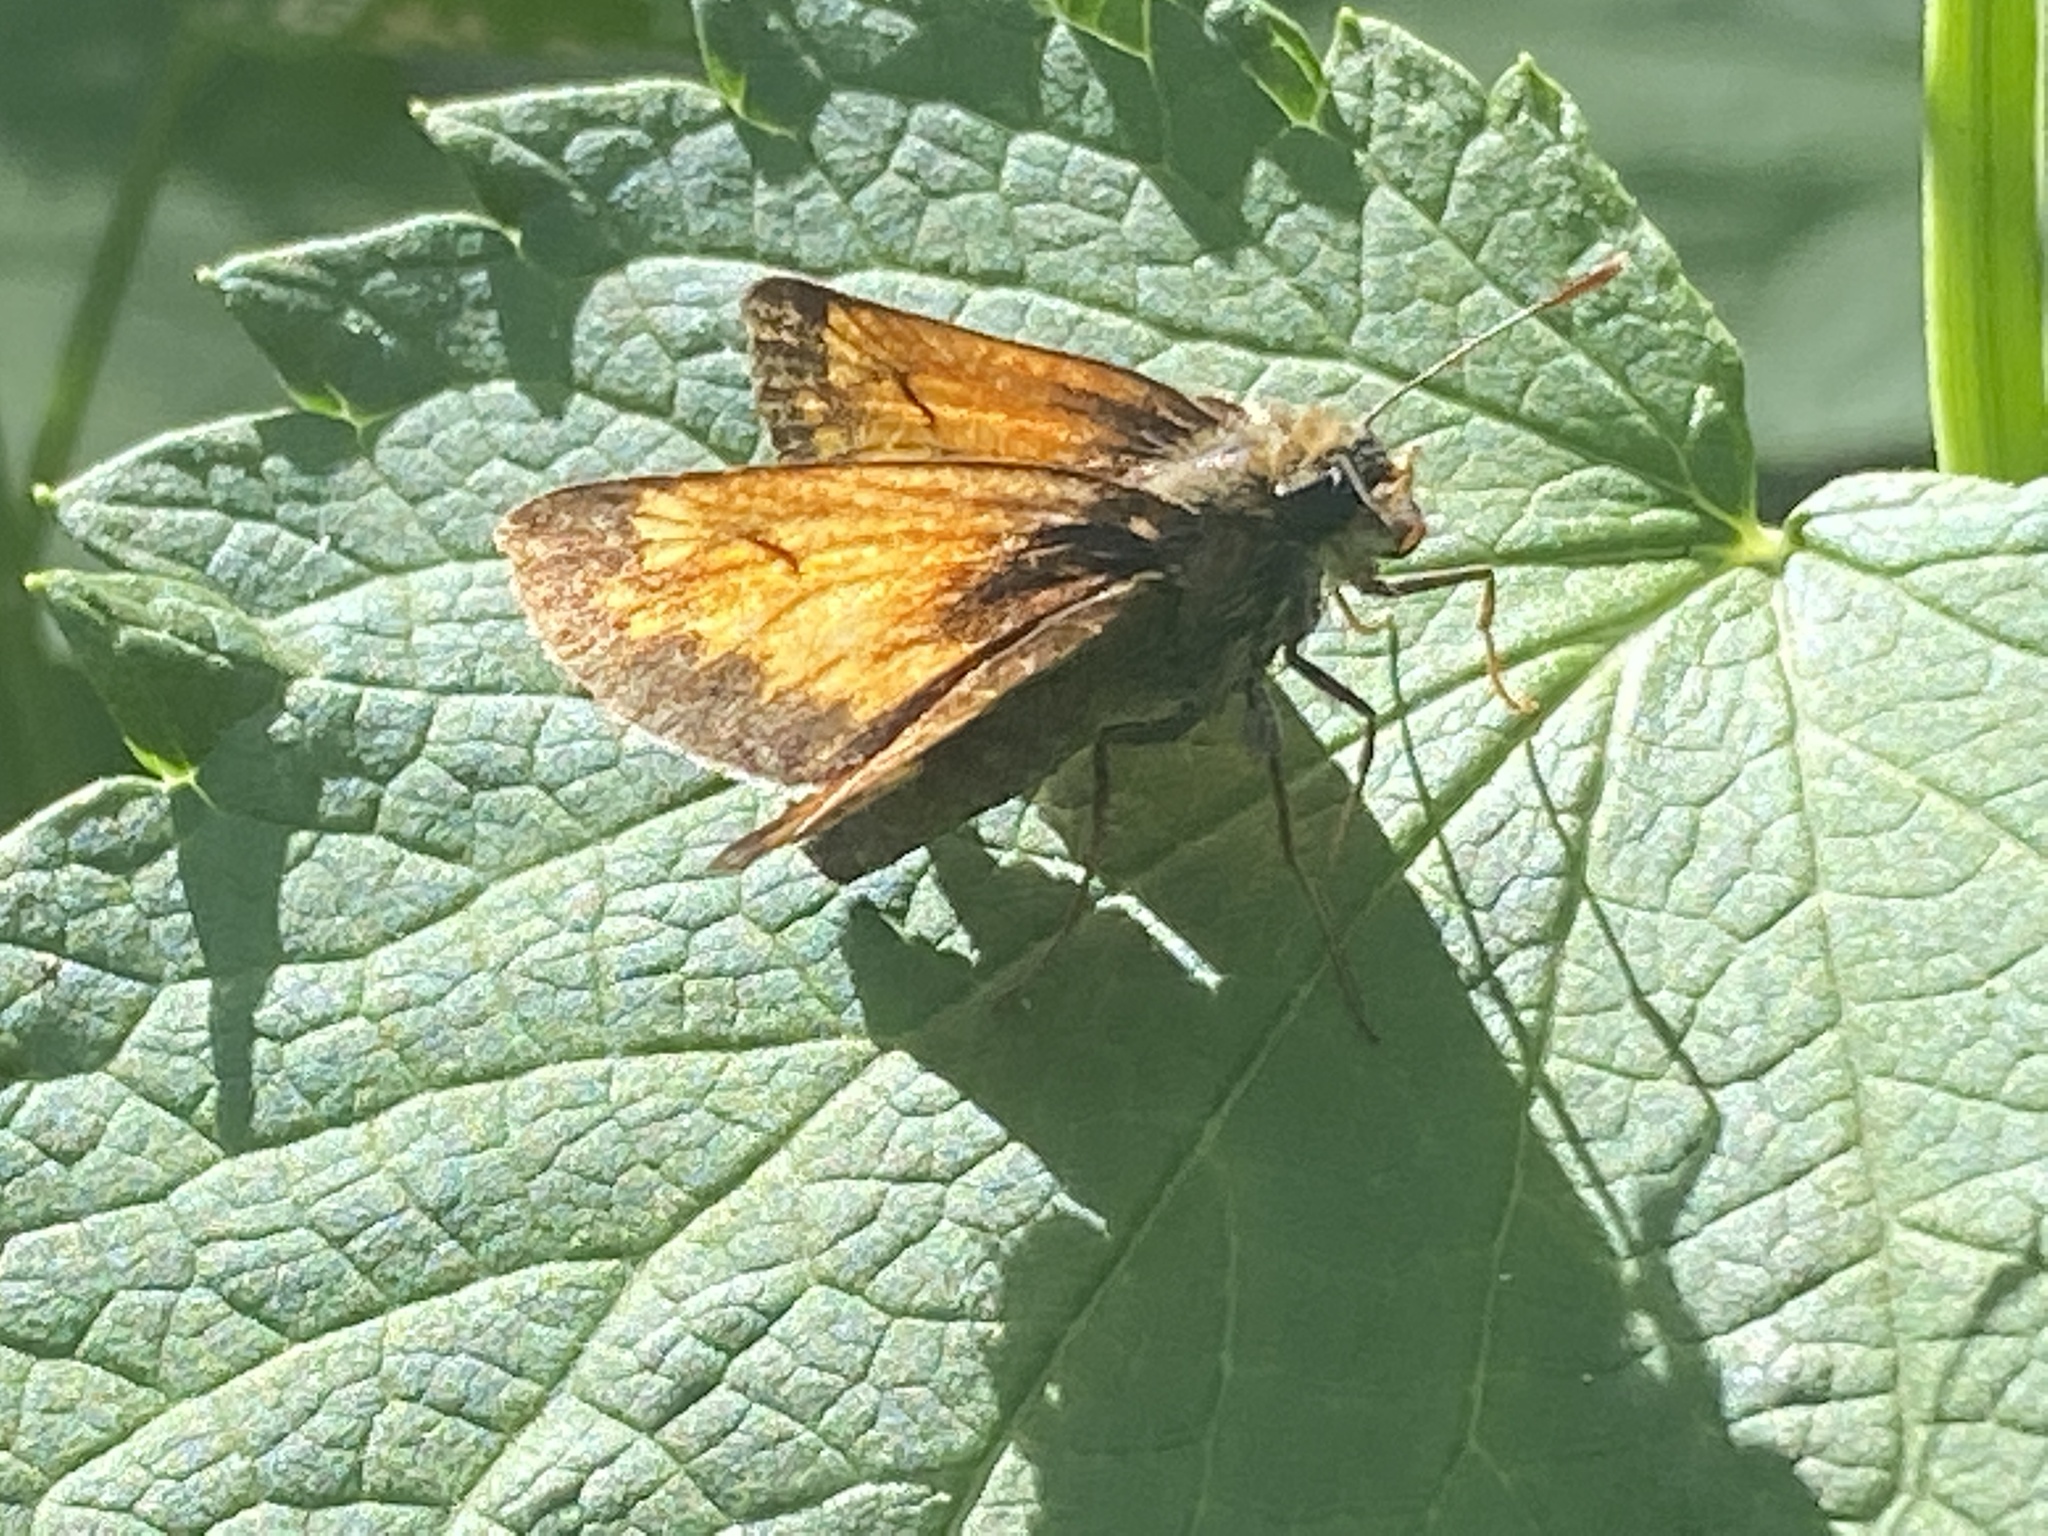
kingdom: Animalia
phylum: Arthropoda
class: Insecta
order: Lepidoptera
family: Hesperiidae
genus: Lon
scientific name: Lon hobomok
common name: Hobomok skipper
